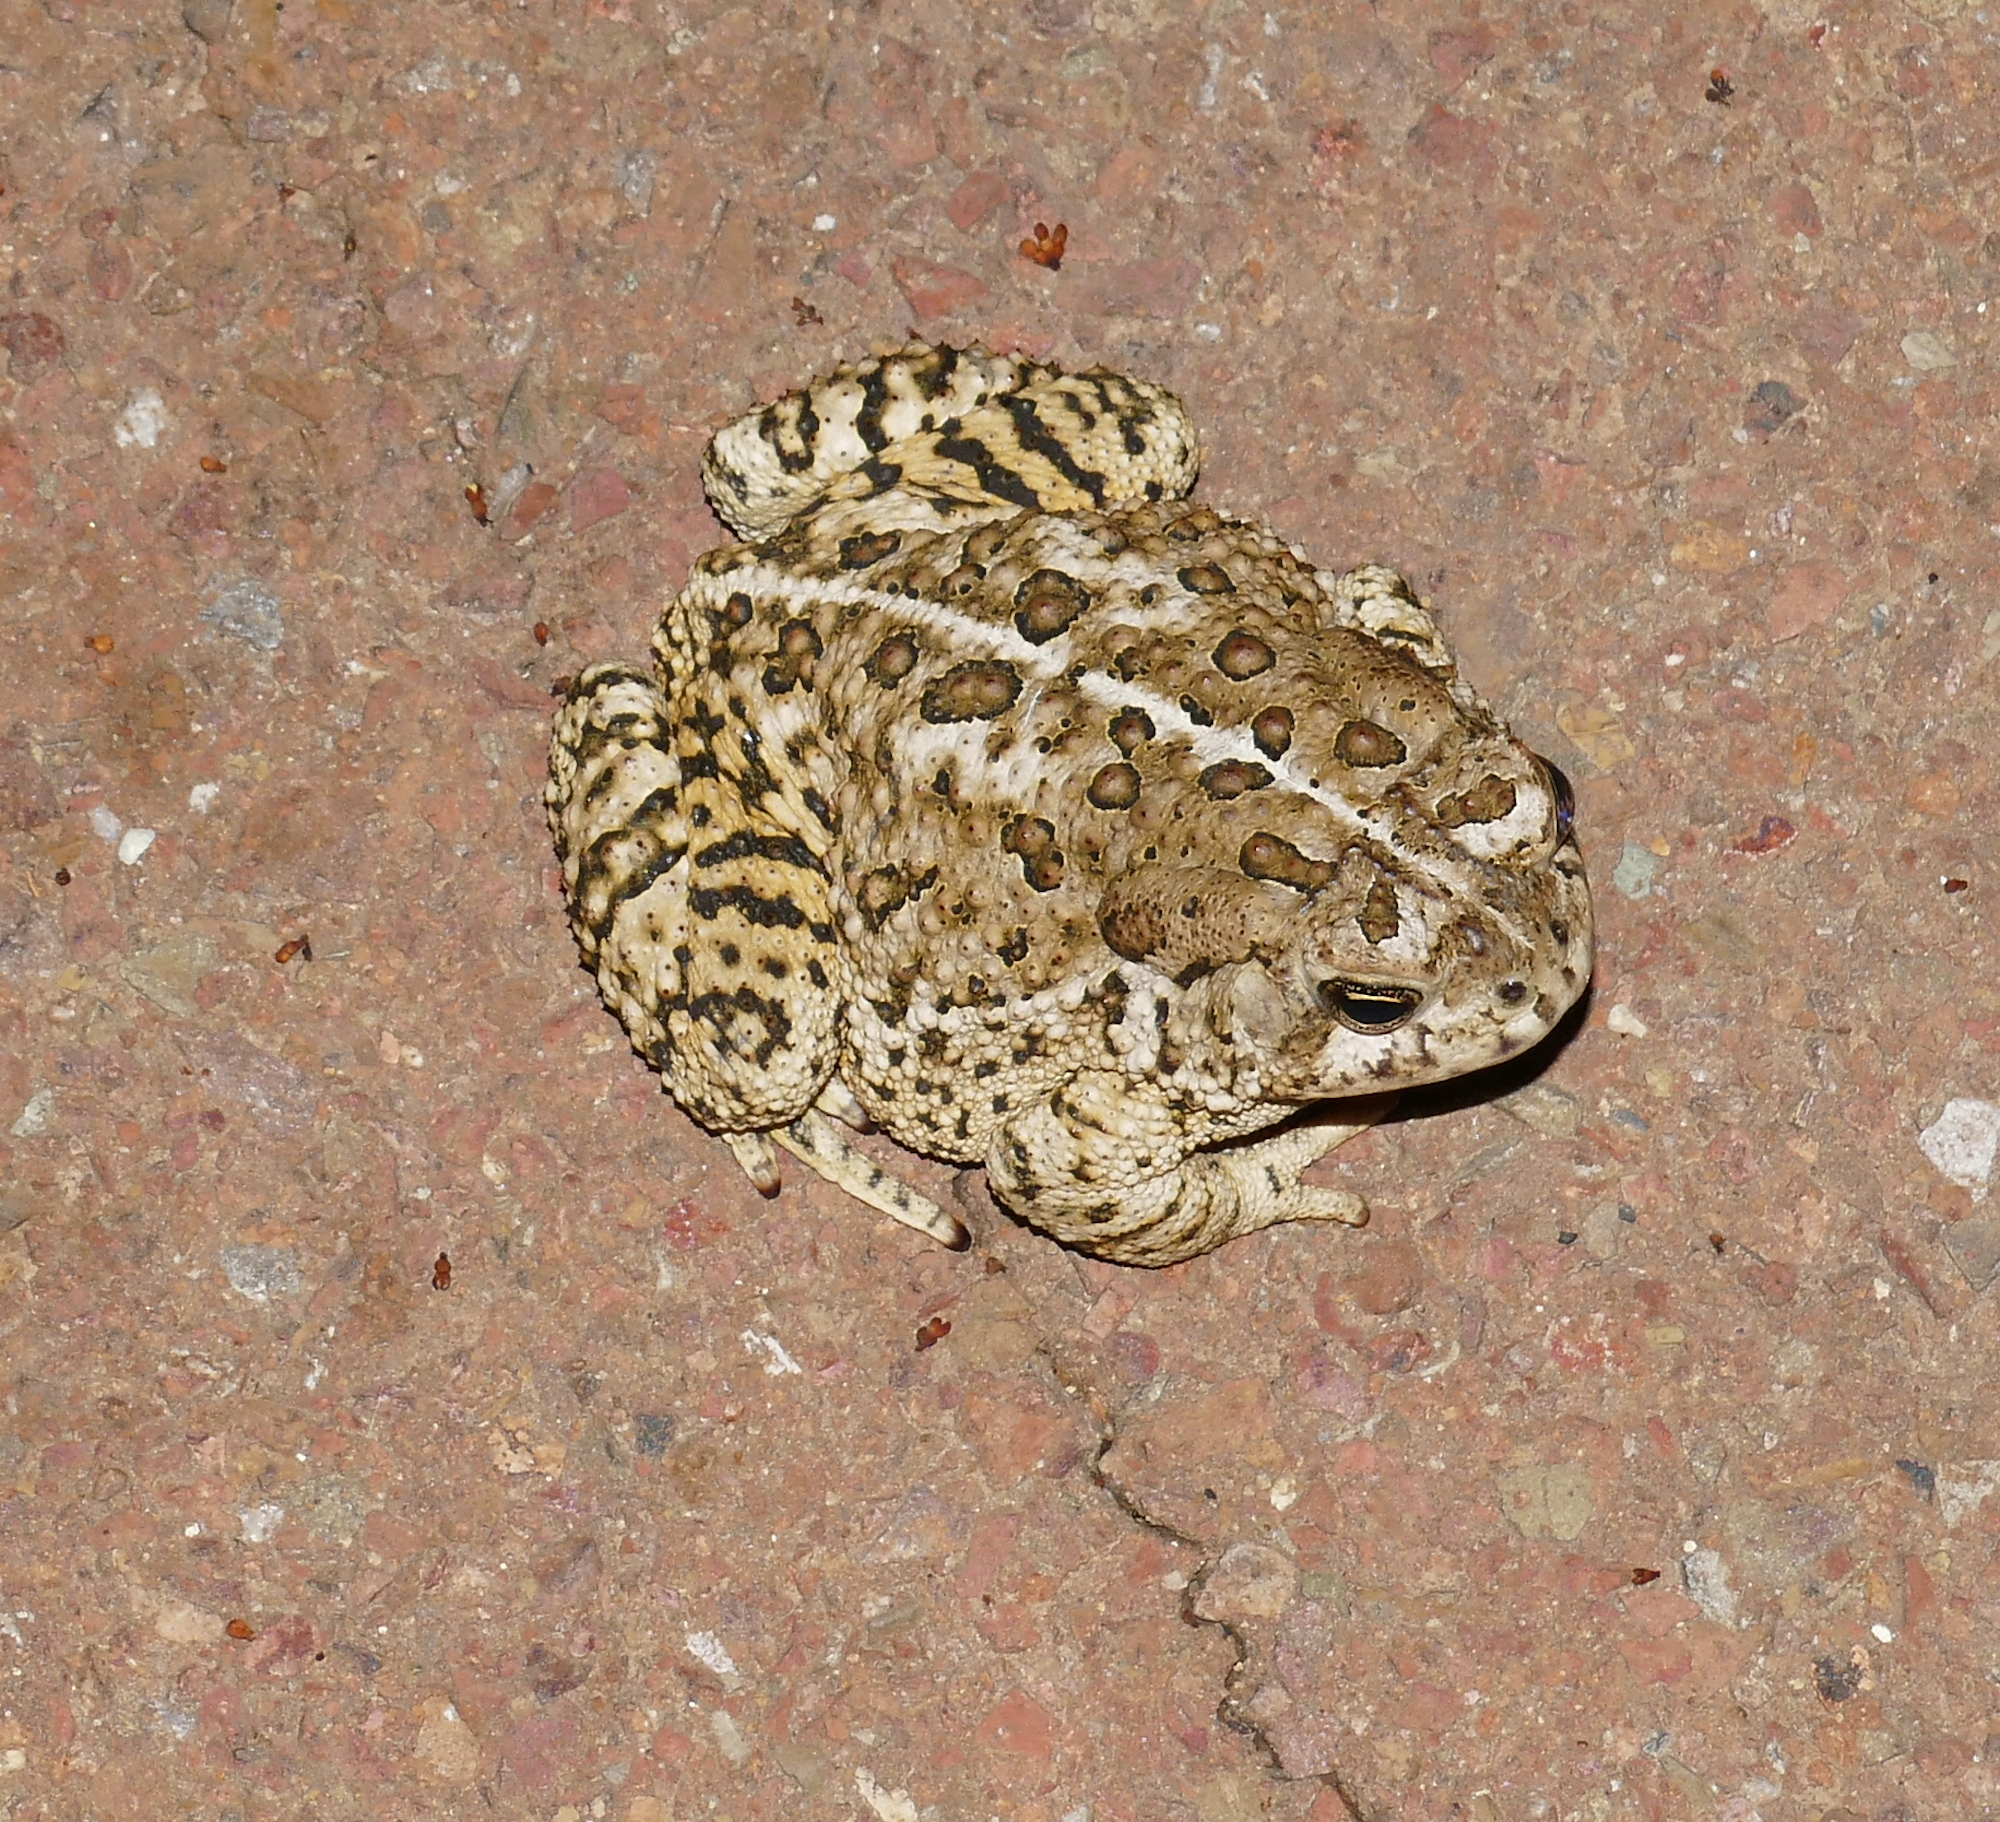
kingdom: Animalia
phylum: Chordata
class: Amphibia
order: Anura
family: Bufonidae
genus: Anaxyrus
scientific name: Anaxyrus woodhousii
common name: Woodhouse's toad
